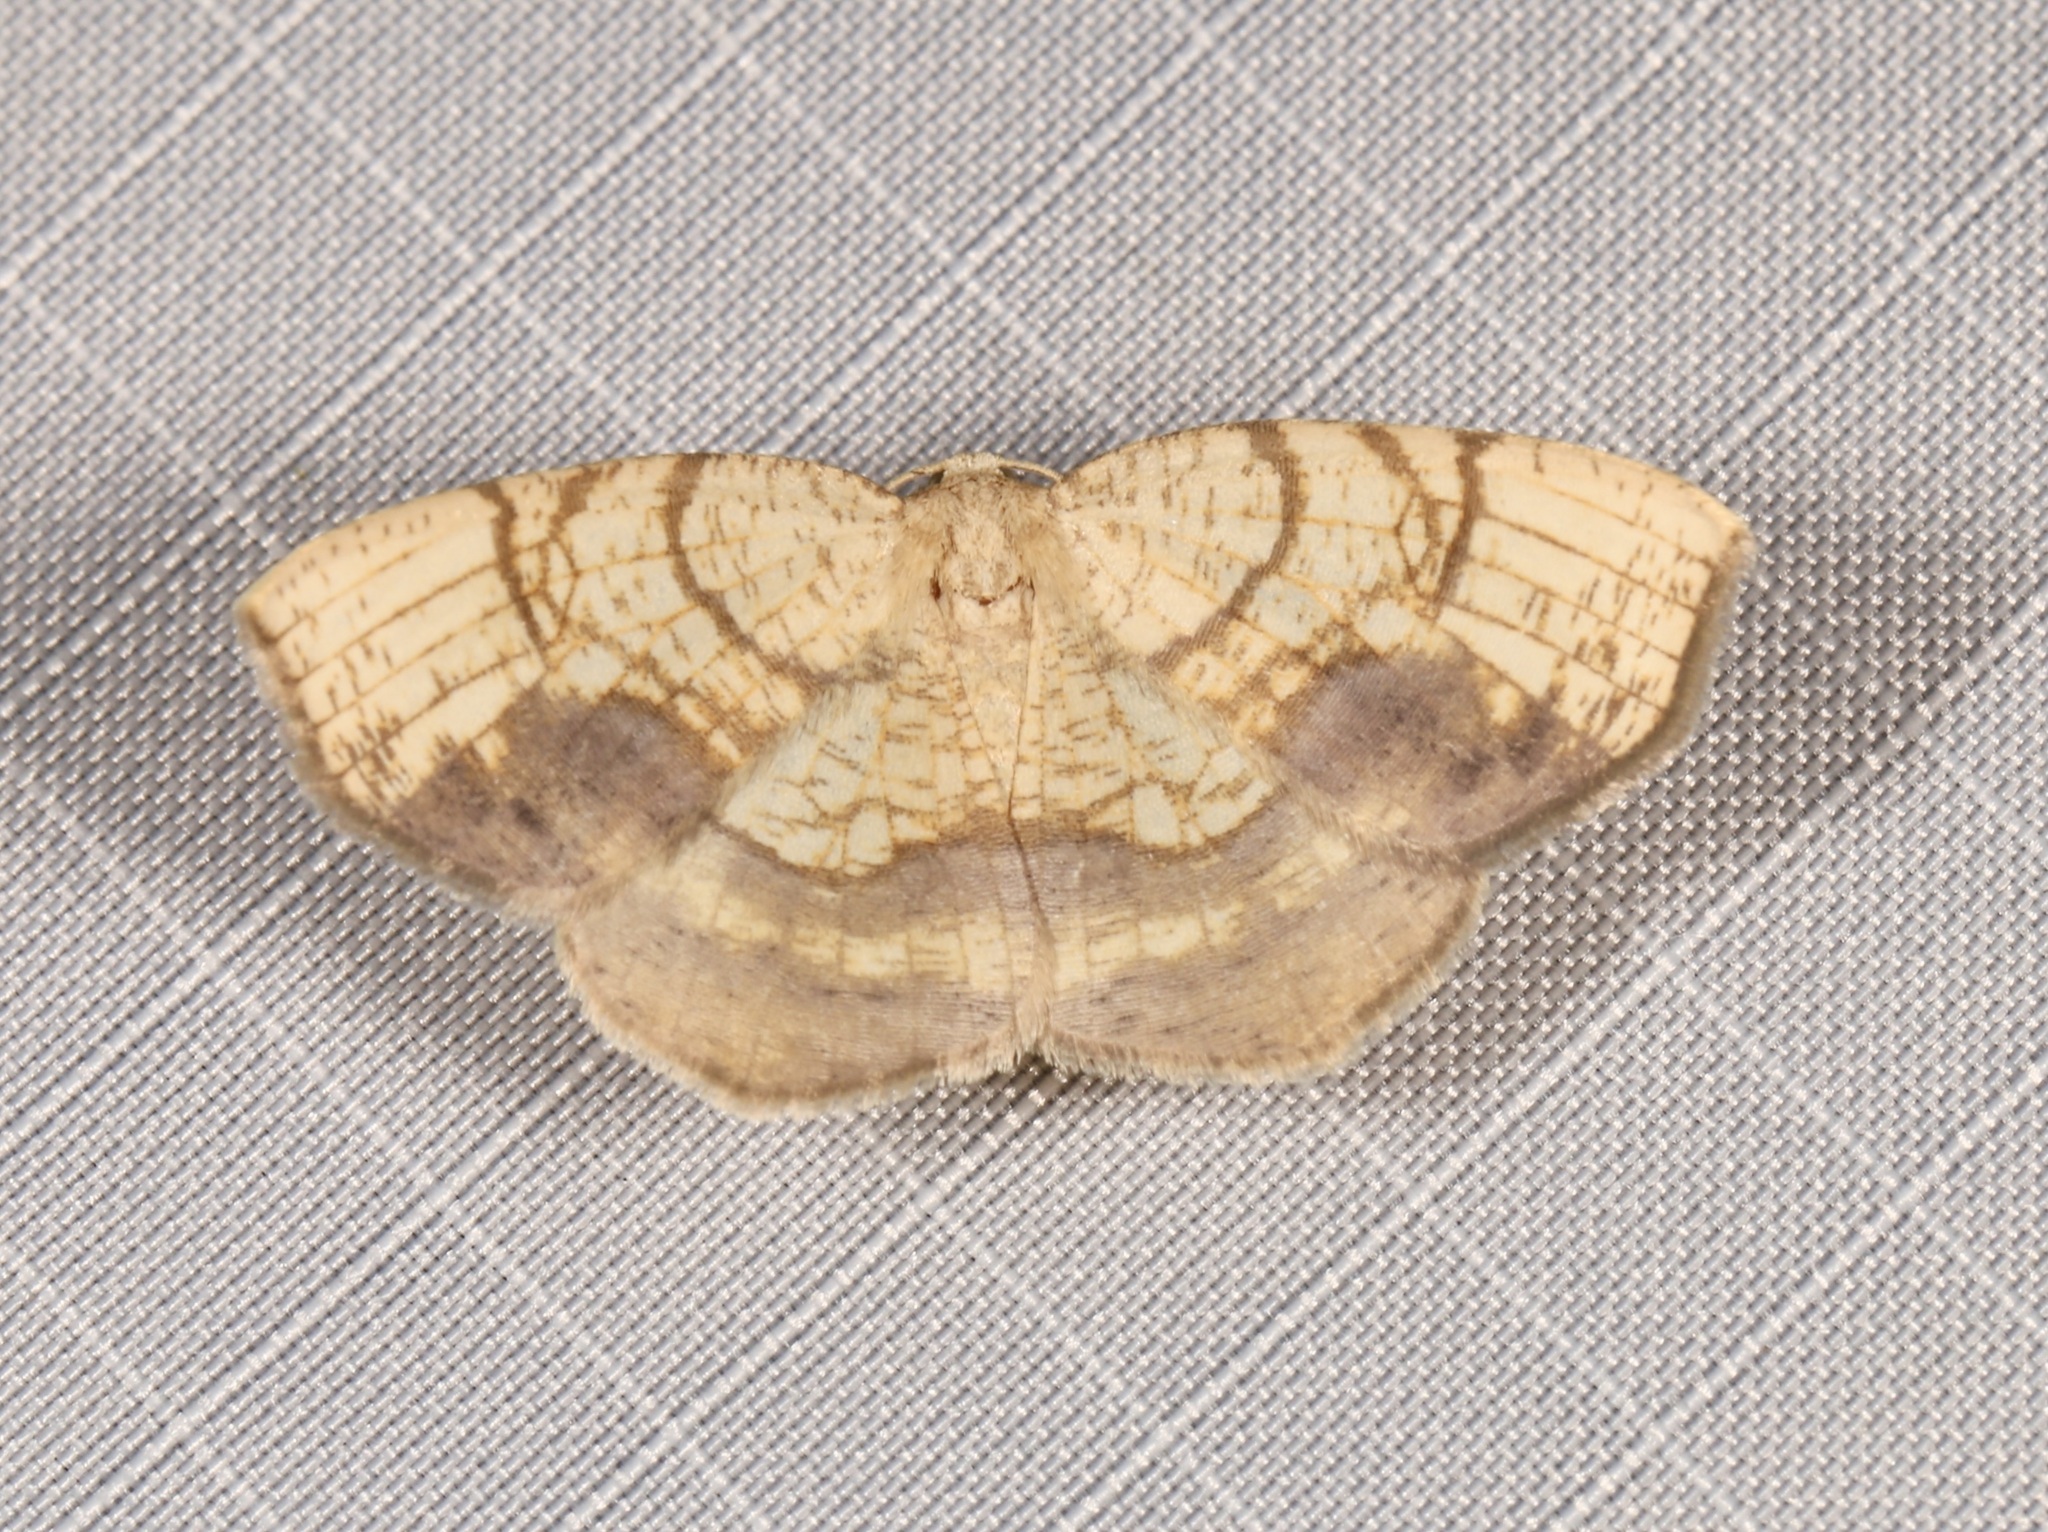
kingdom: Animalia
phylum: Arthropoda
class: Insecta
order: Lepidoptera
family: Geometridae
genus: Nematocampa
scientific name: Nematocampa resistaria
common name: Horned spanworm moth
